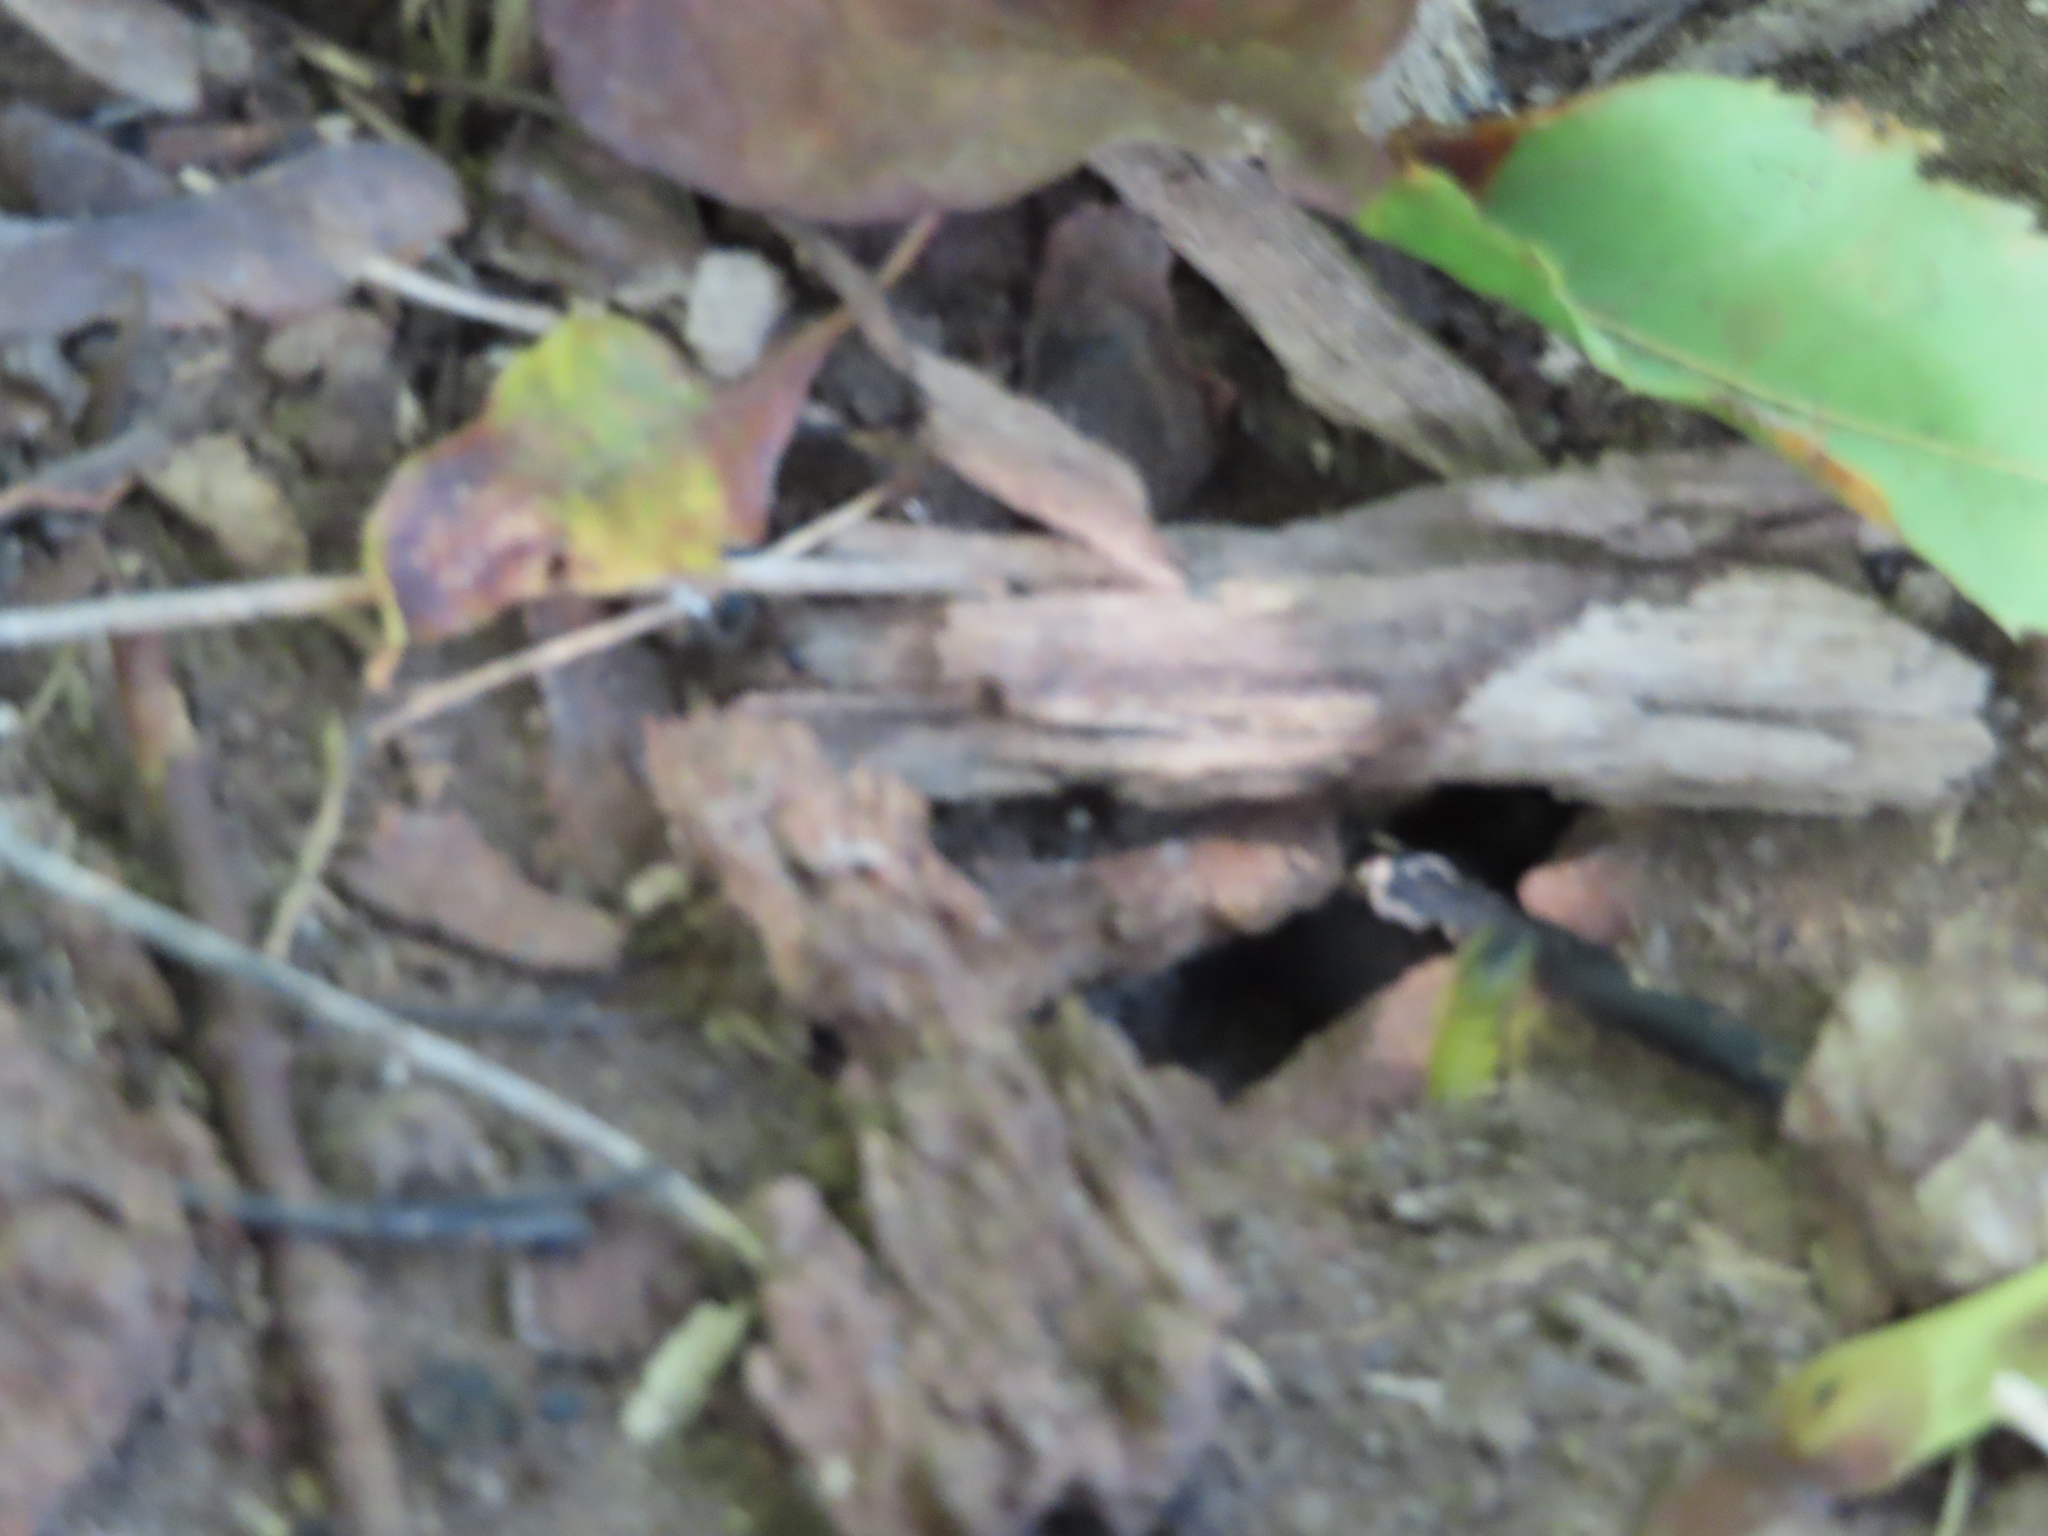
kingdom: Animalia
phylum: Arthropoda
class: Insecta
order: Hymenoptera
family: Vespidae
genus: Vespula
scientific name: Vespula germanica
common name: German wasp
